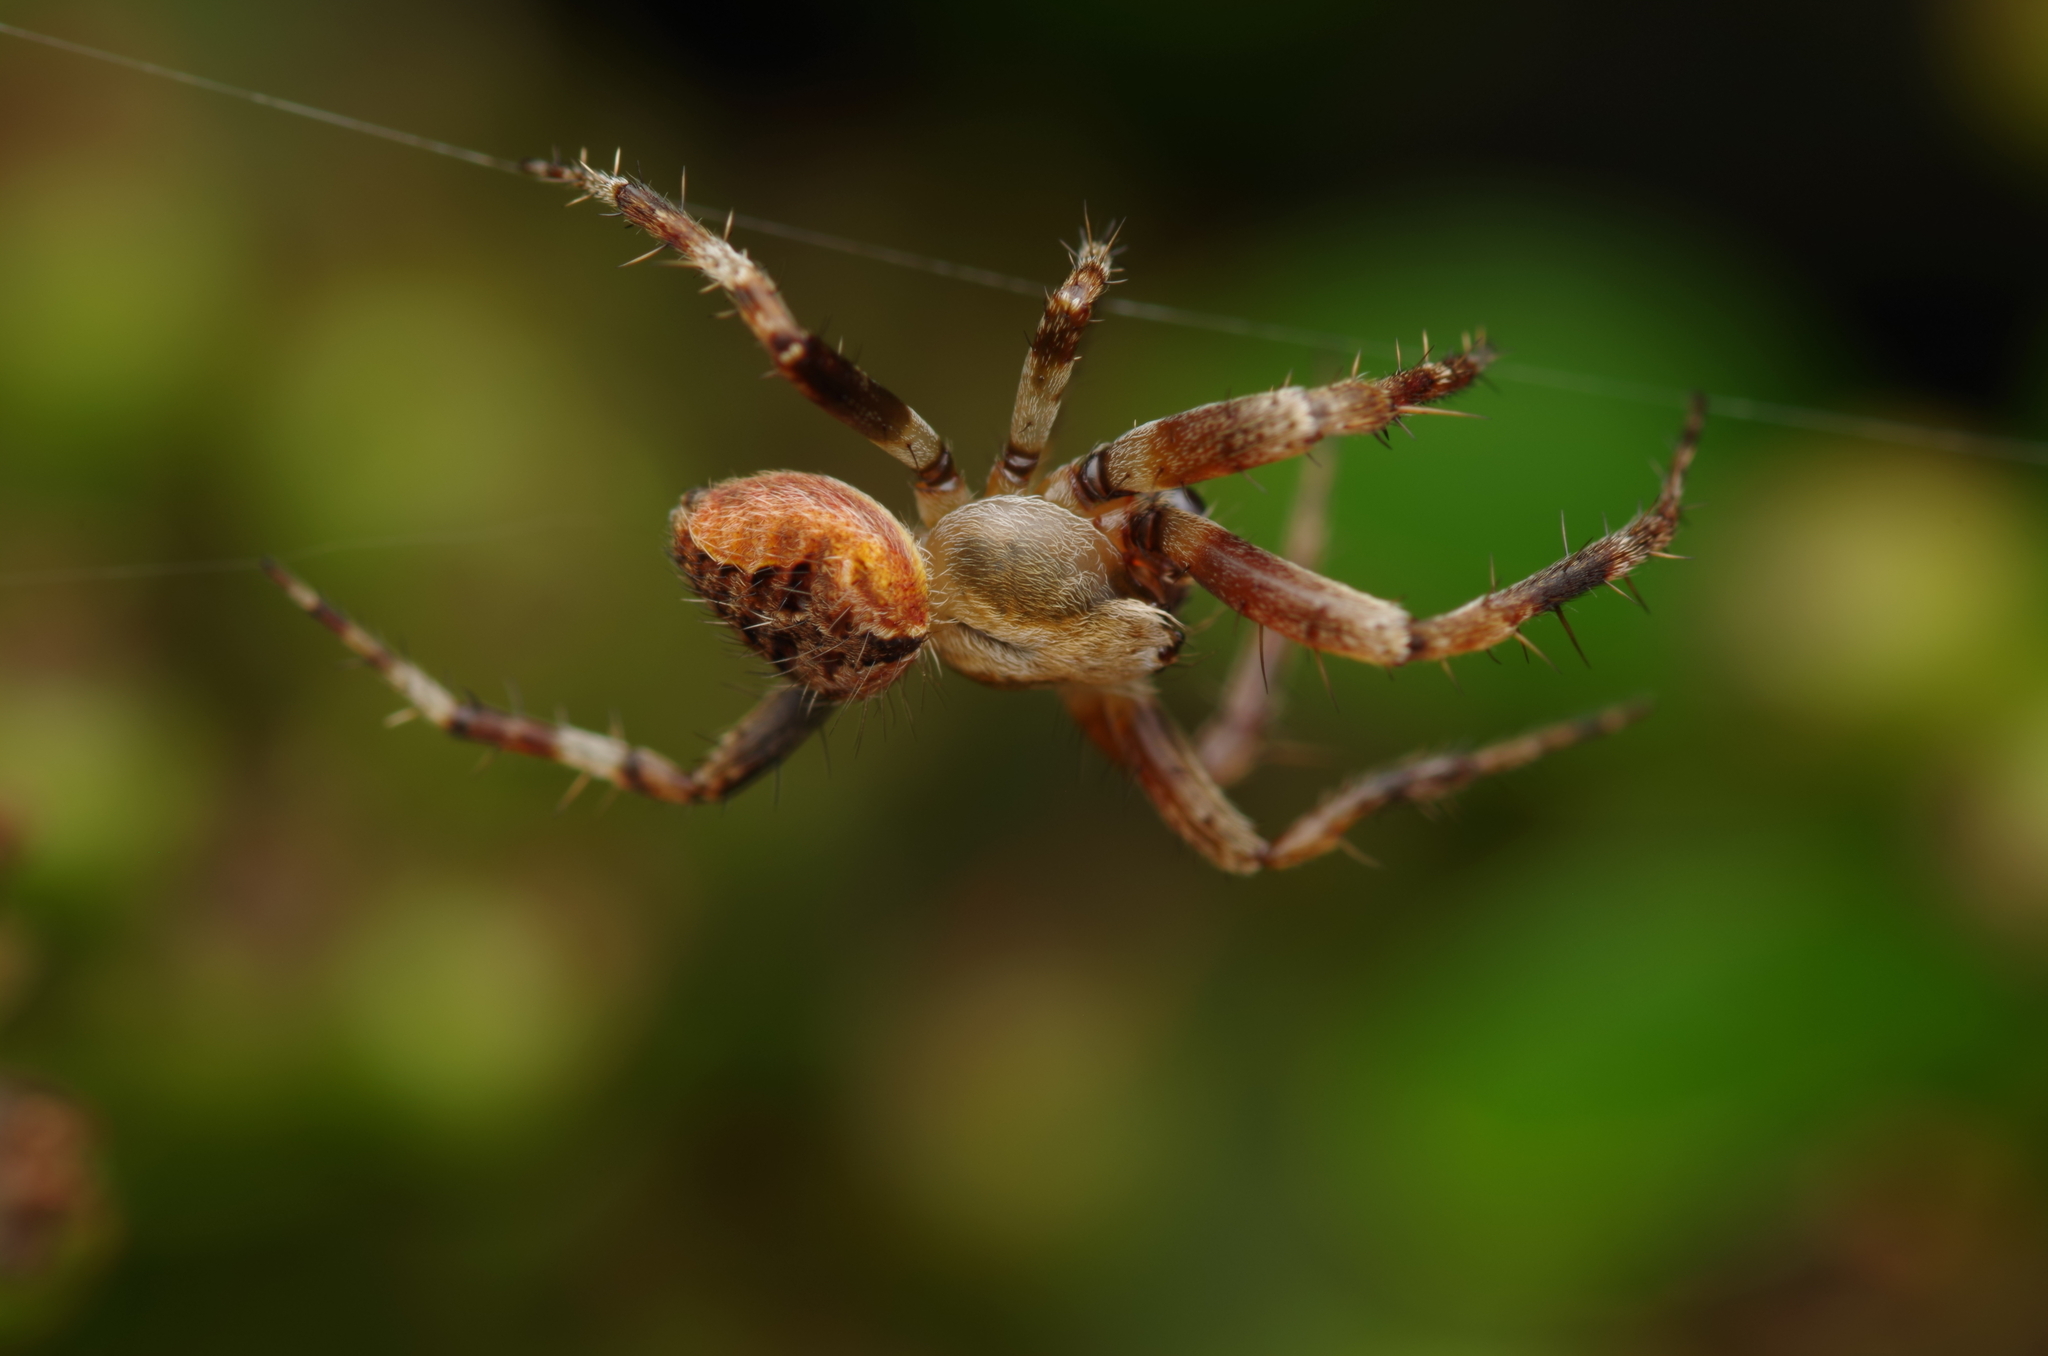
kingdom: Animalia
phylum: Arthropoda
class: Arachnida
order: Araneae
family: Araneidae
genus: Neoscona
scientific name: Neoscona subfusca
